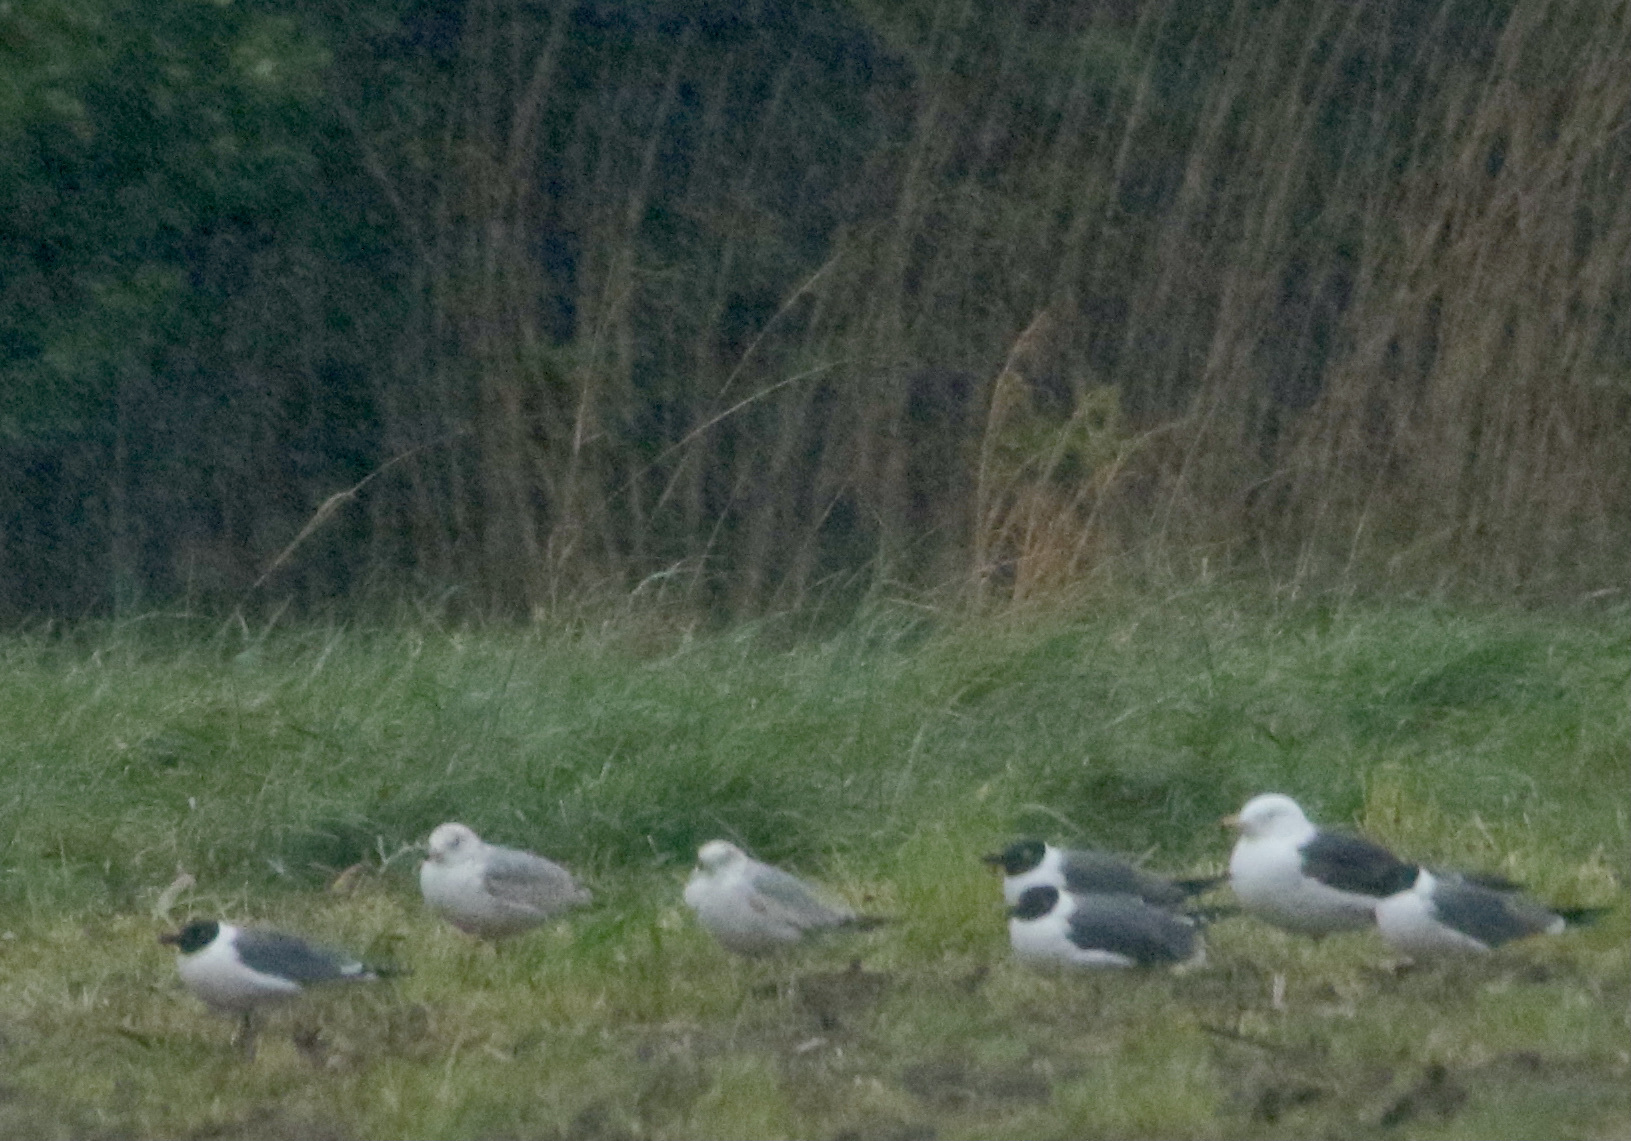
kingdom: Animalia
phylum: Chordata
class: Aves
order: Charadriiformes
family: Laridae
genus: Larus
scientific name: Larus fuscus
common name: Lesser black-backed gull
